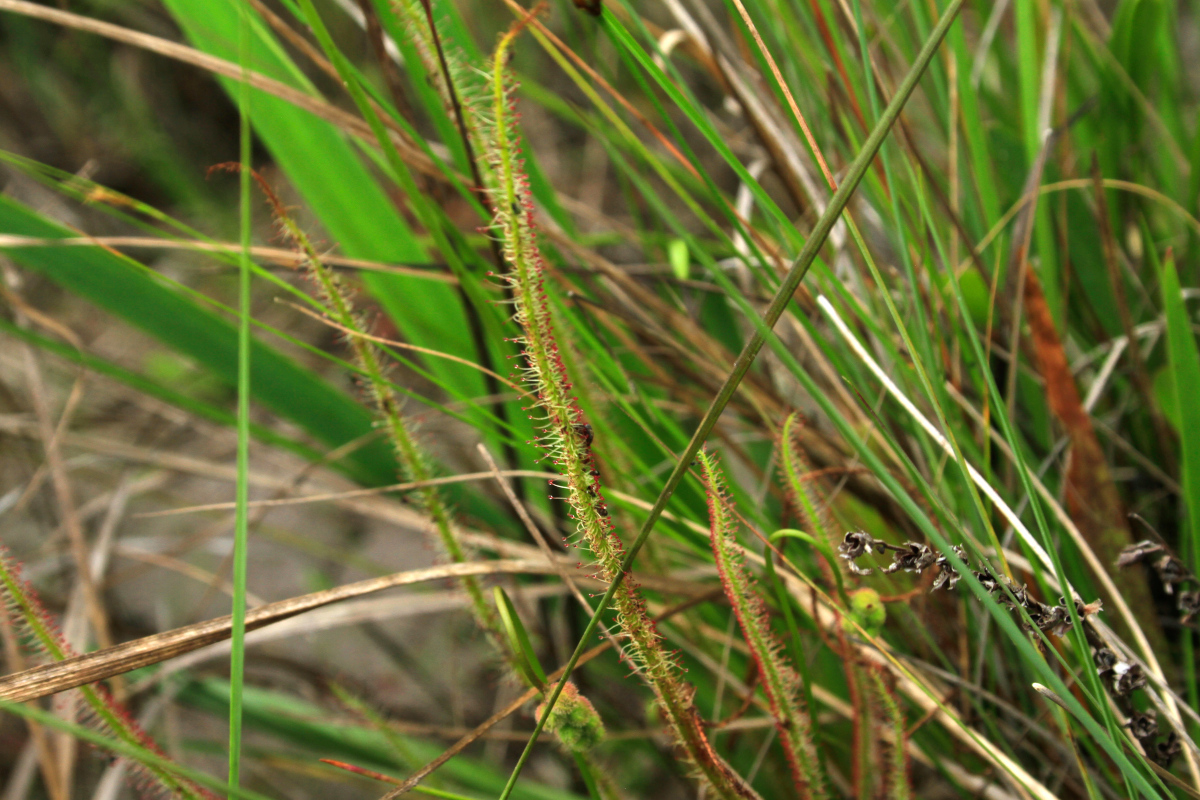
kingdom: Plantae
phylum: Tracheophyta
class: Magnoliopsida
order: Caryophyllales
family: Droseraceae
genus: Drosera
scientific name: Drosera filiformis
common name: Dew-thread
